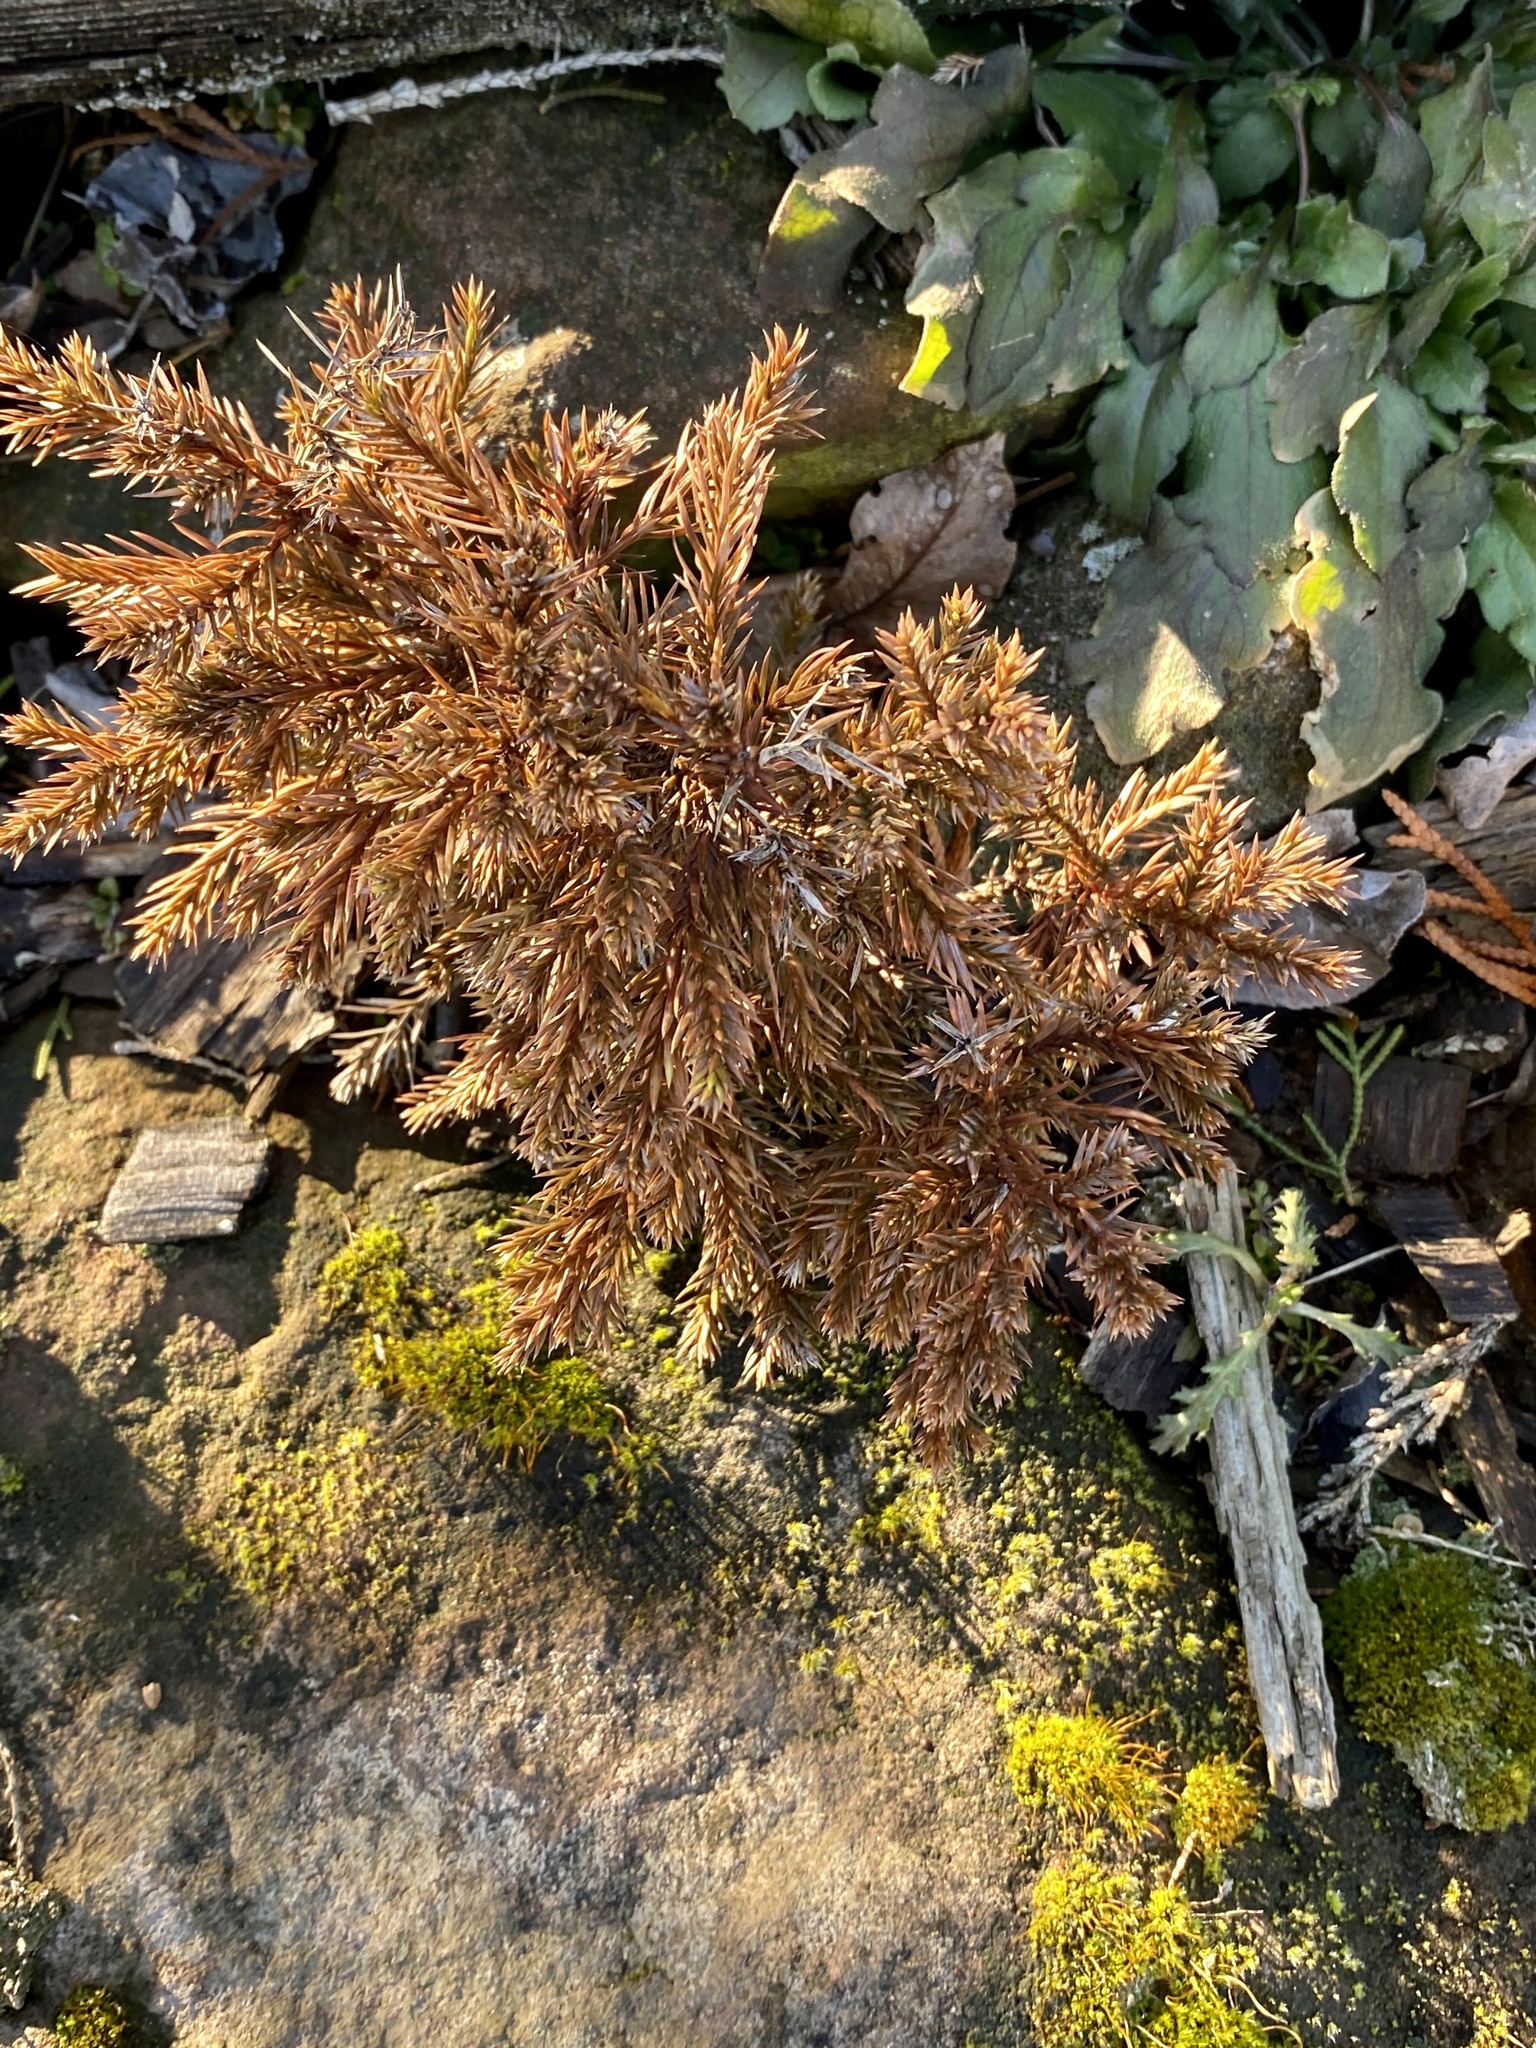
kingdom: Plantae
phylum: Tracheophyta
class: Pinopsida
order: Pinales
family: Cupressaceae
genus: Juniperus
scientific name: Juniperus virginiana
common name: Red juniper
